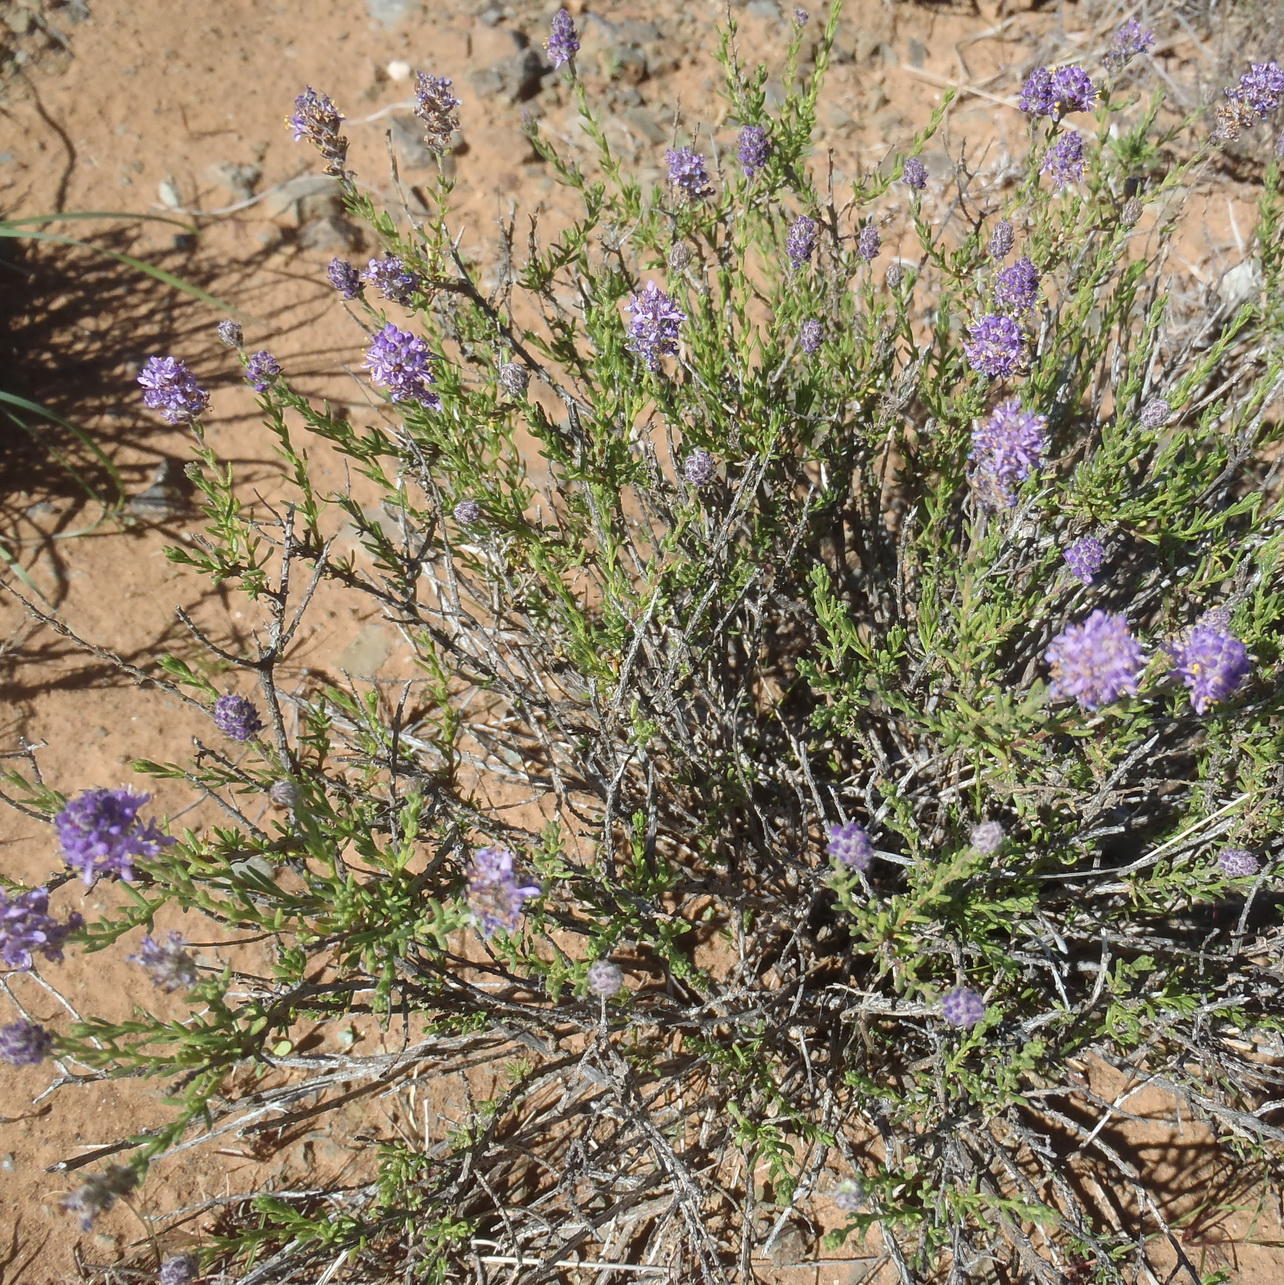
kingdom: Plantae
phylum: Tracheophyta
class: Magnoliopsida
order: Lamiales
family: Scrophulariaceae
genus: Selago
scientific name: Selago geniculata
